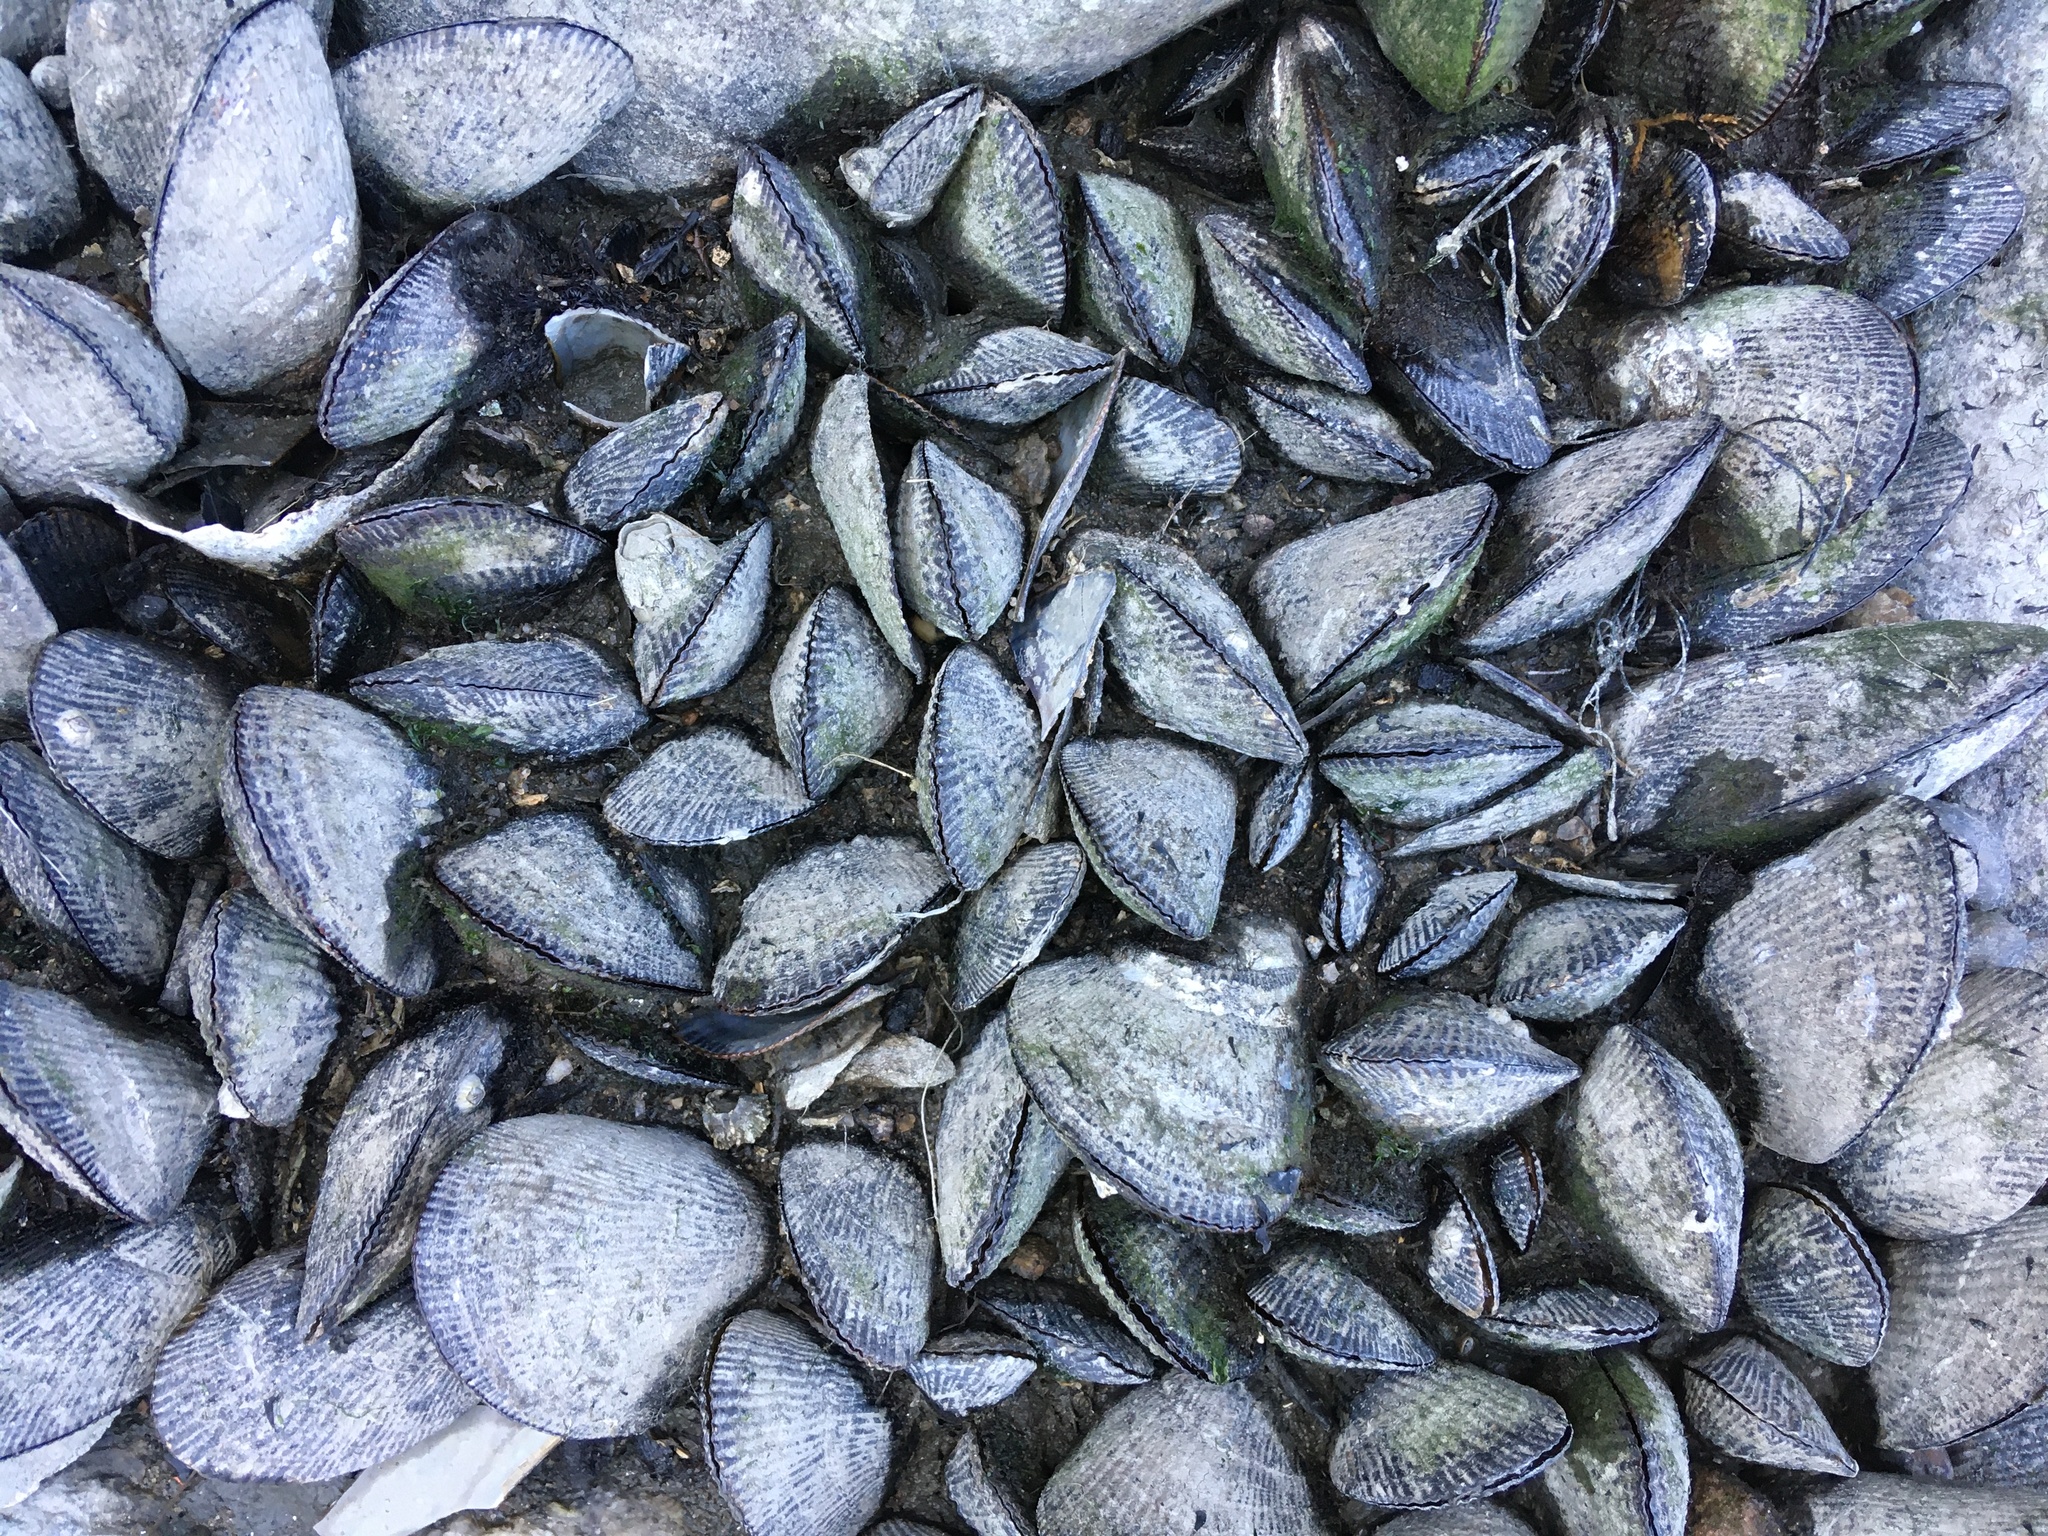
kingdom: Animalia
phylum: Mollusca
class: Bivalvia
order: Mytilida
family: Mytilidae
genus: Geukensia
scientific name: Geukensia demissa
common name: Ribbed mussel
